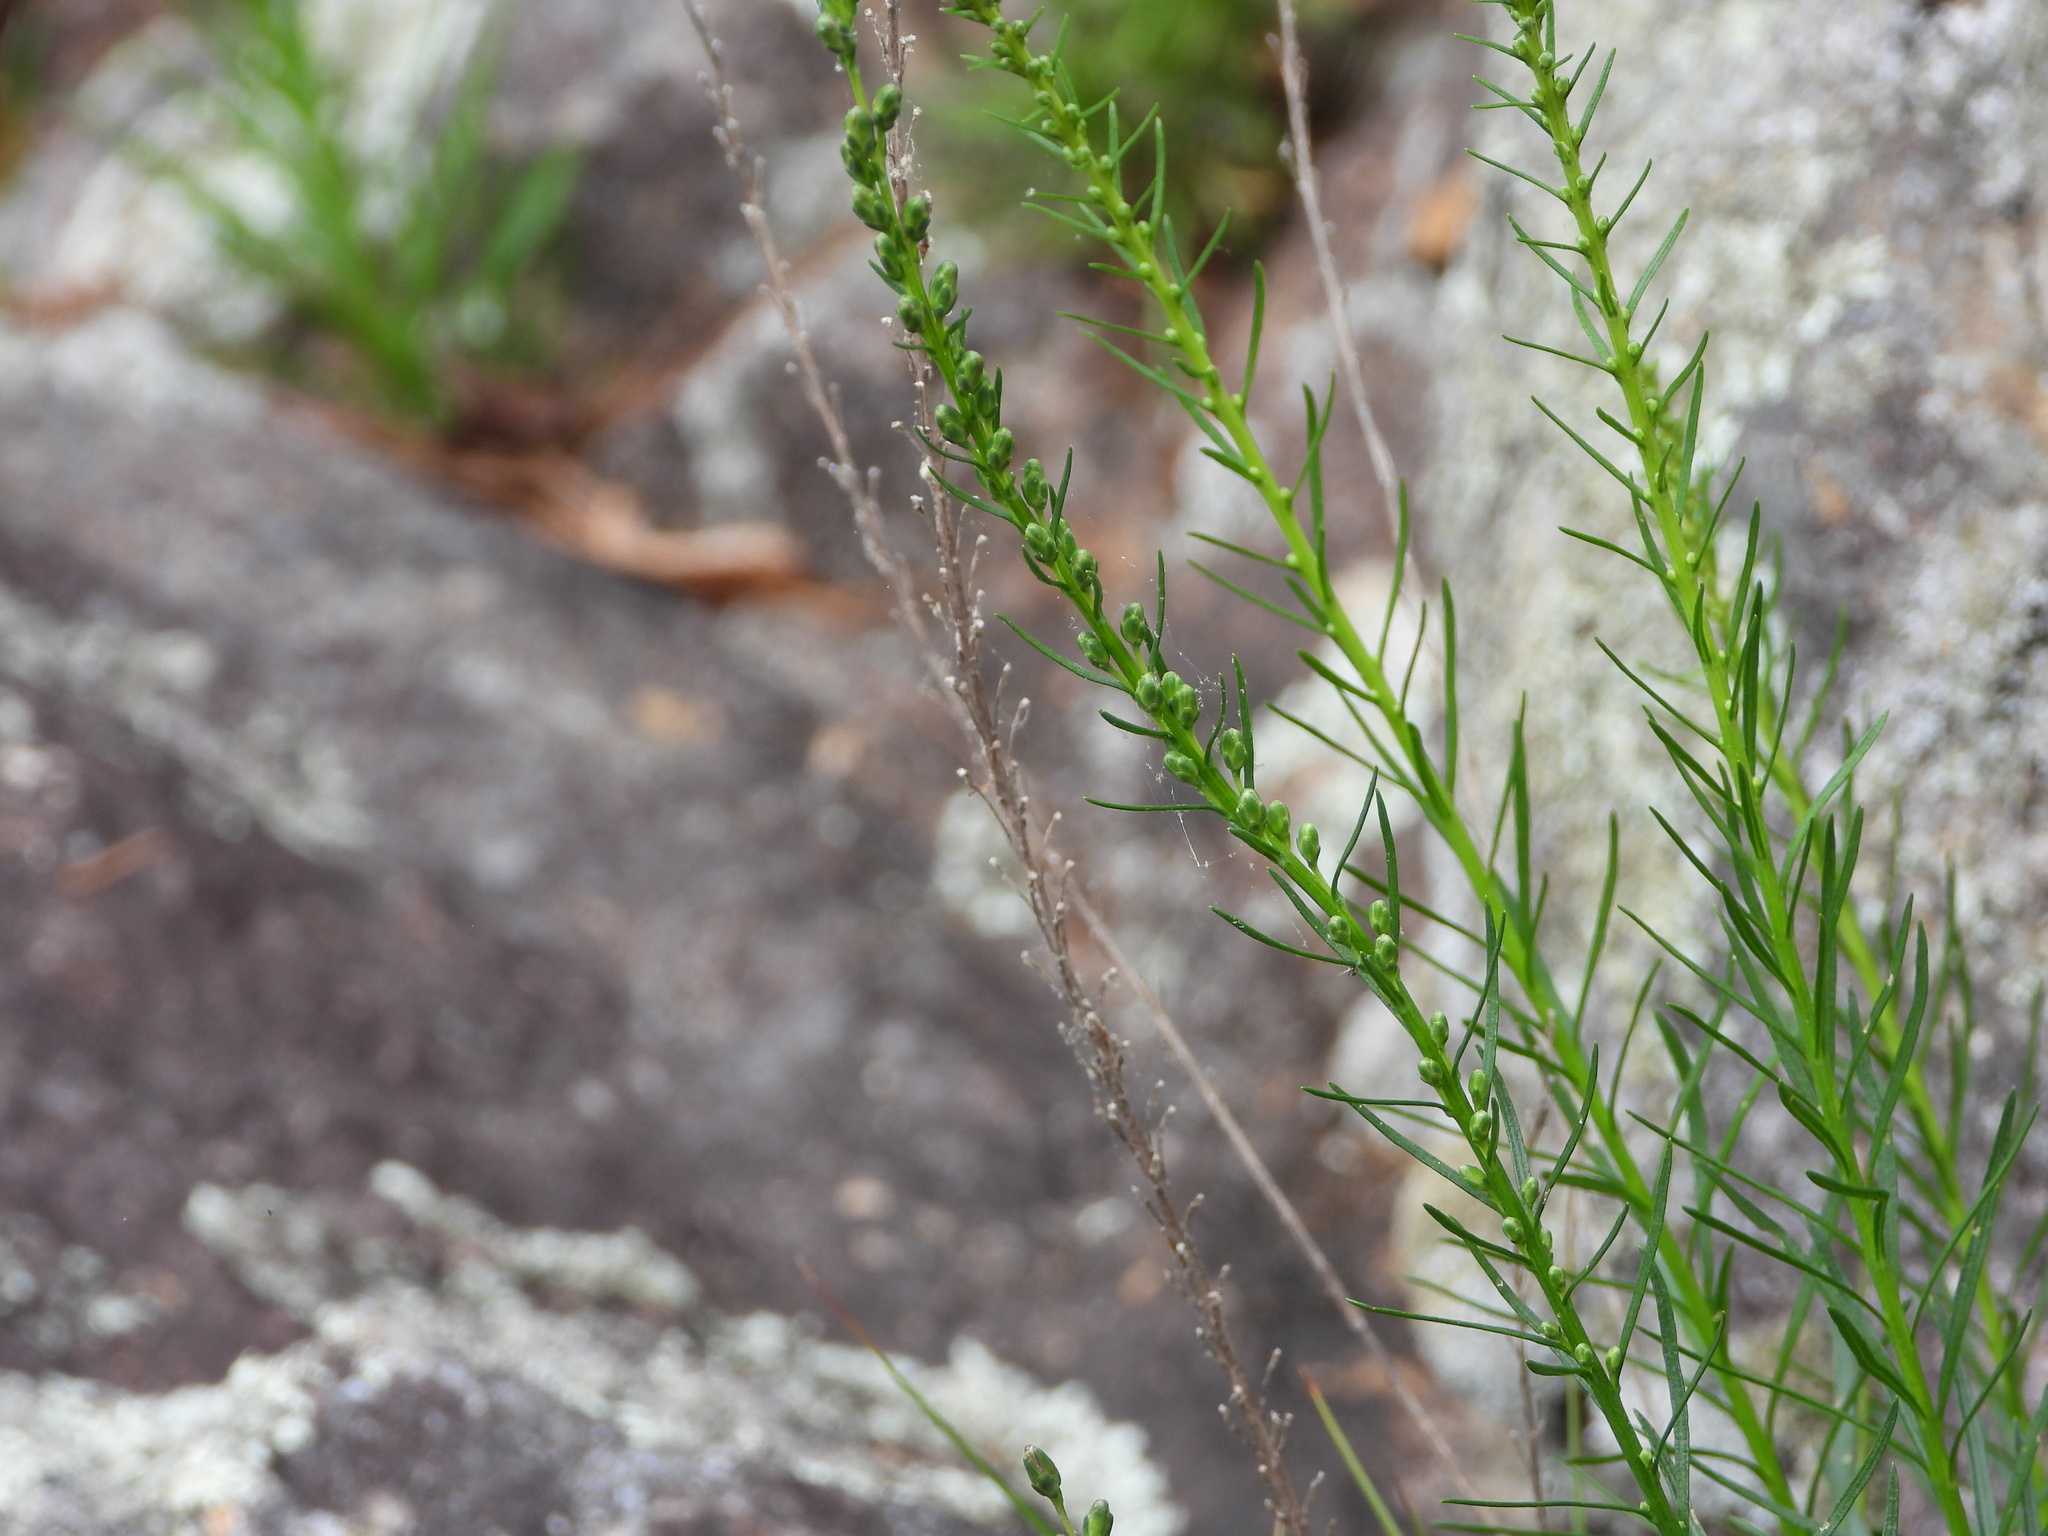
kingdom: Plantae
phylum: Tracheophyta
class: Magnoliopsida
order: Asterales
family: Asteraceae
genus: Liatris
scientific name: Liatris microcephala
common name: Small-head gayfeather
